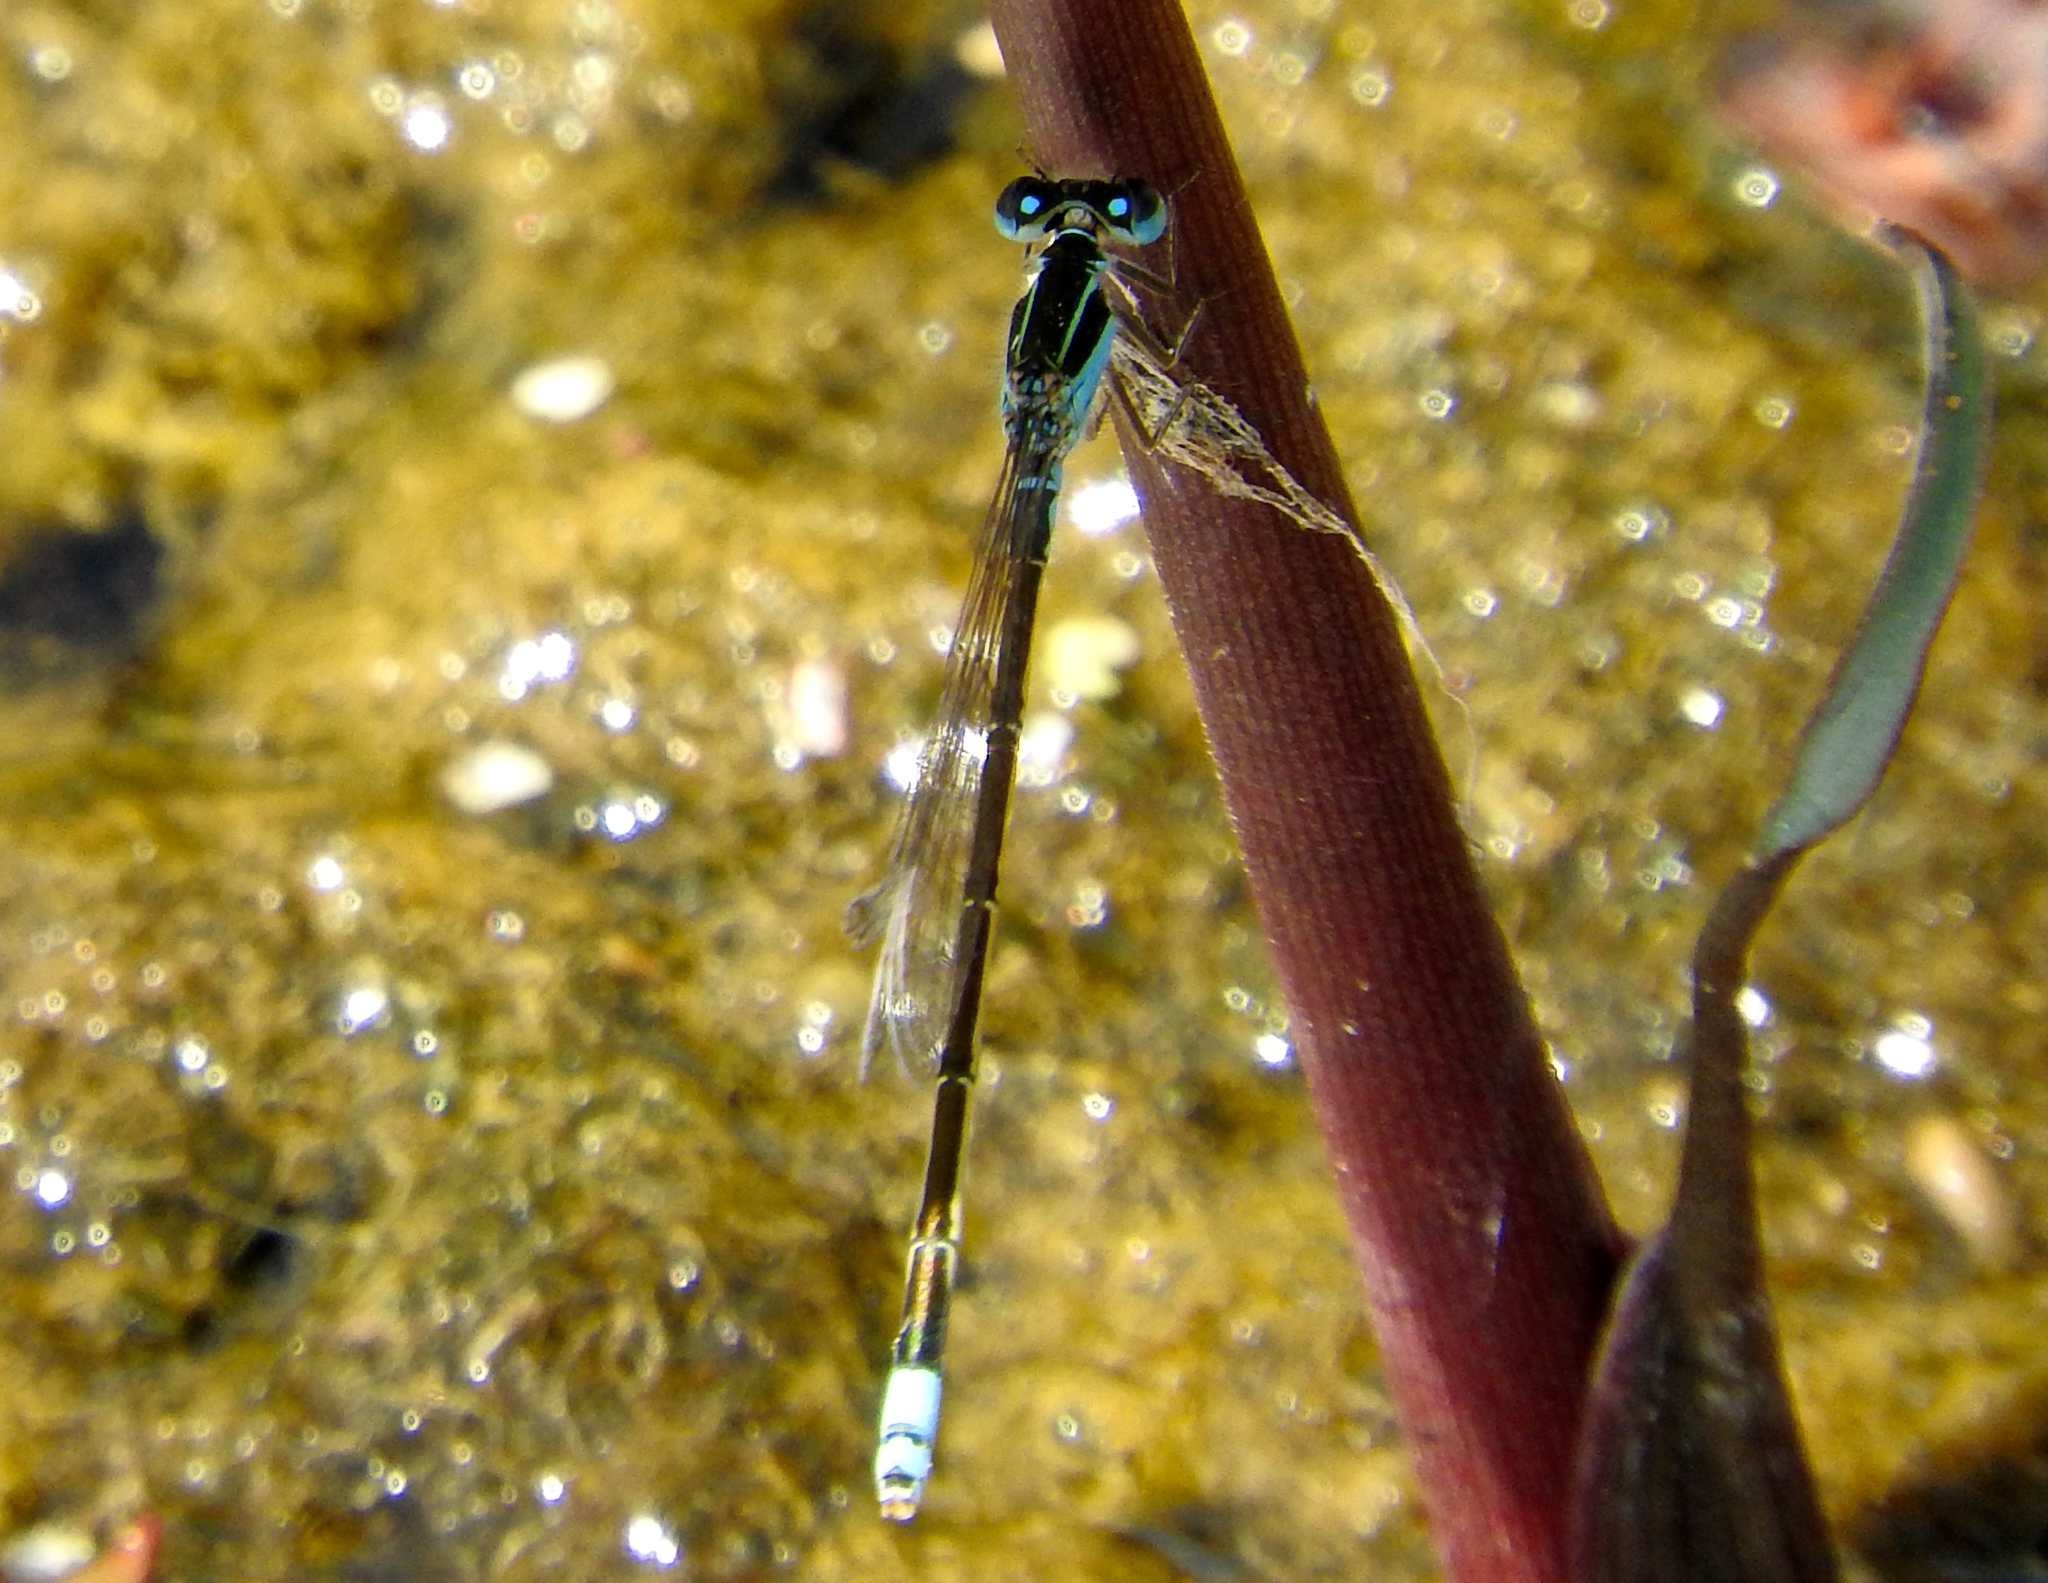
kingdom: Animalia
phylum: Arthropoda
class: Insecta
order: Odonata
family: Coenagrionidae
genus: Ischnura
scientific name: Ischnura
